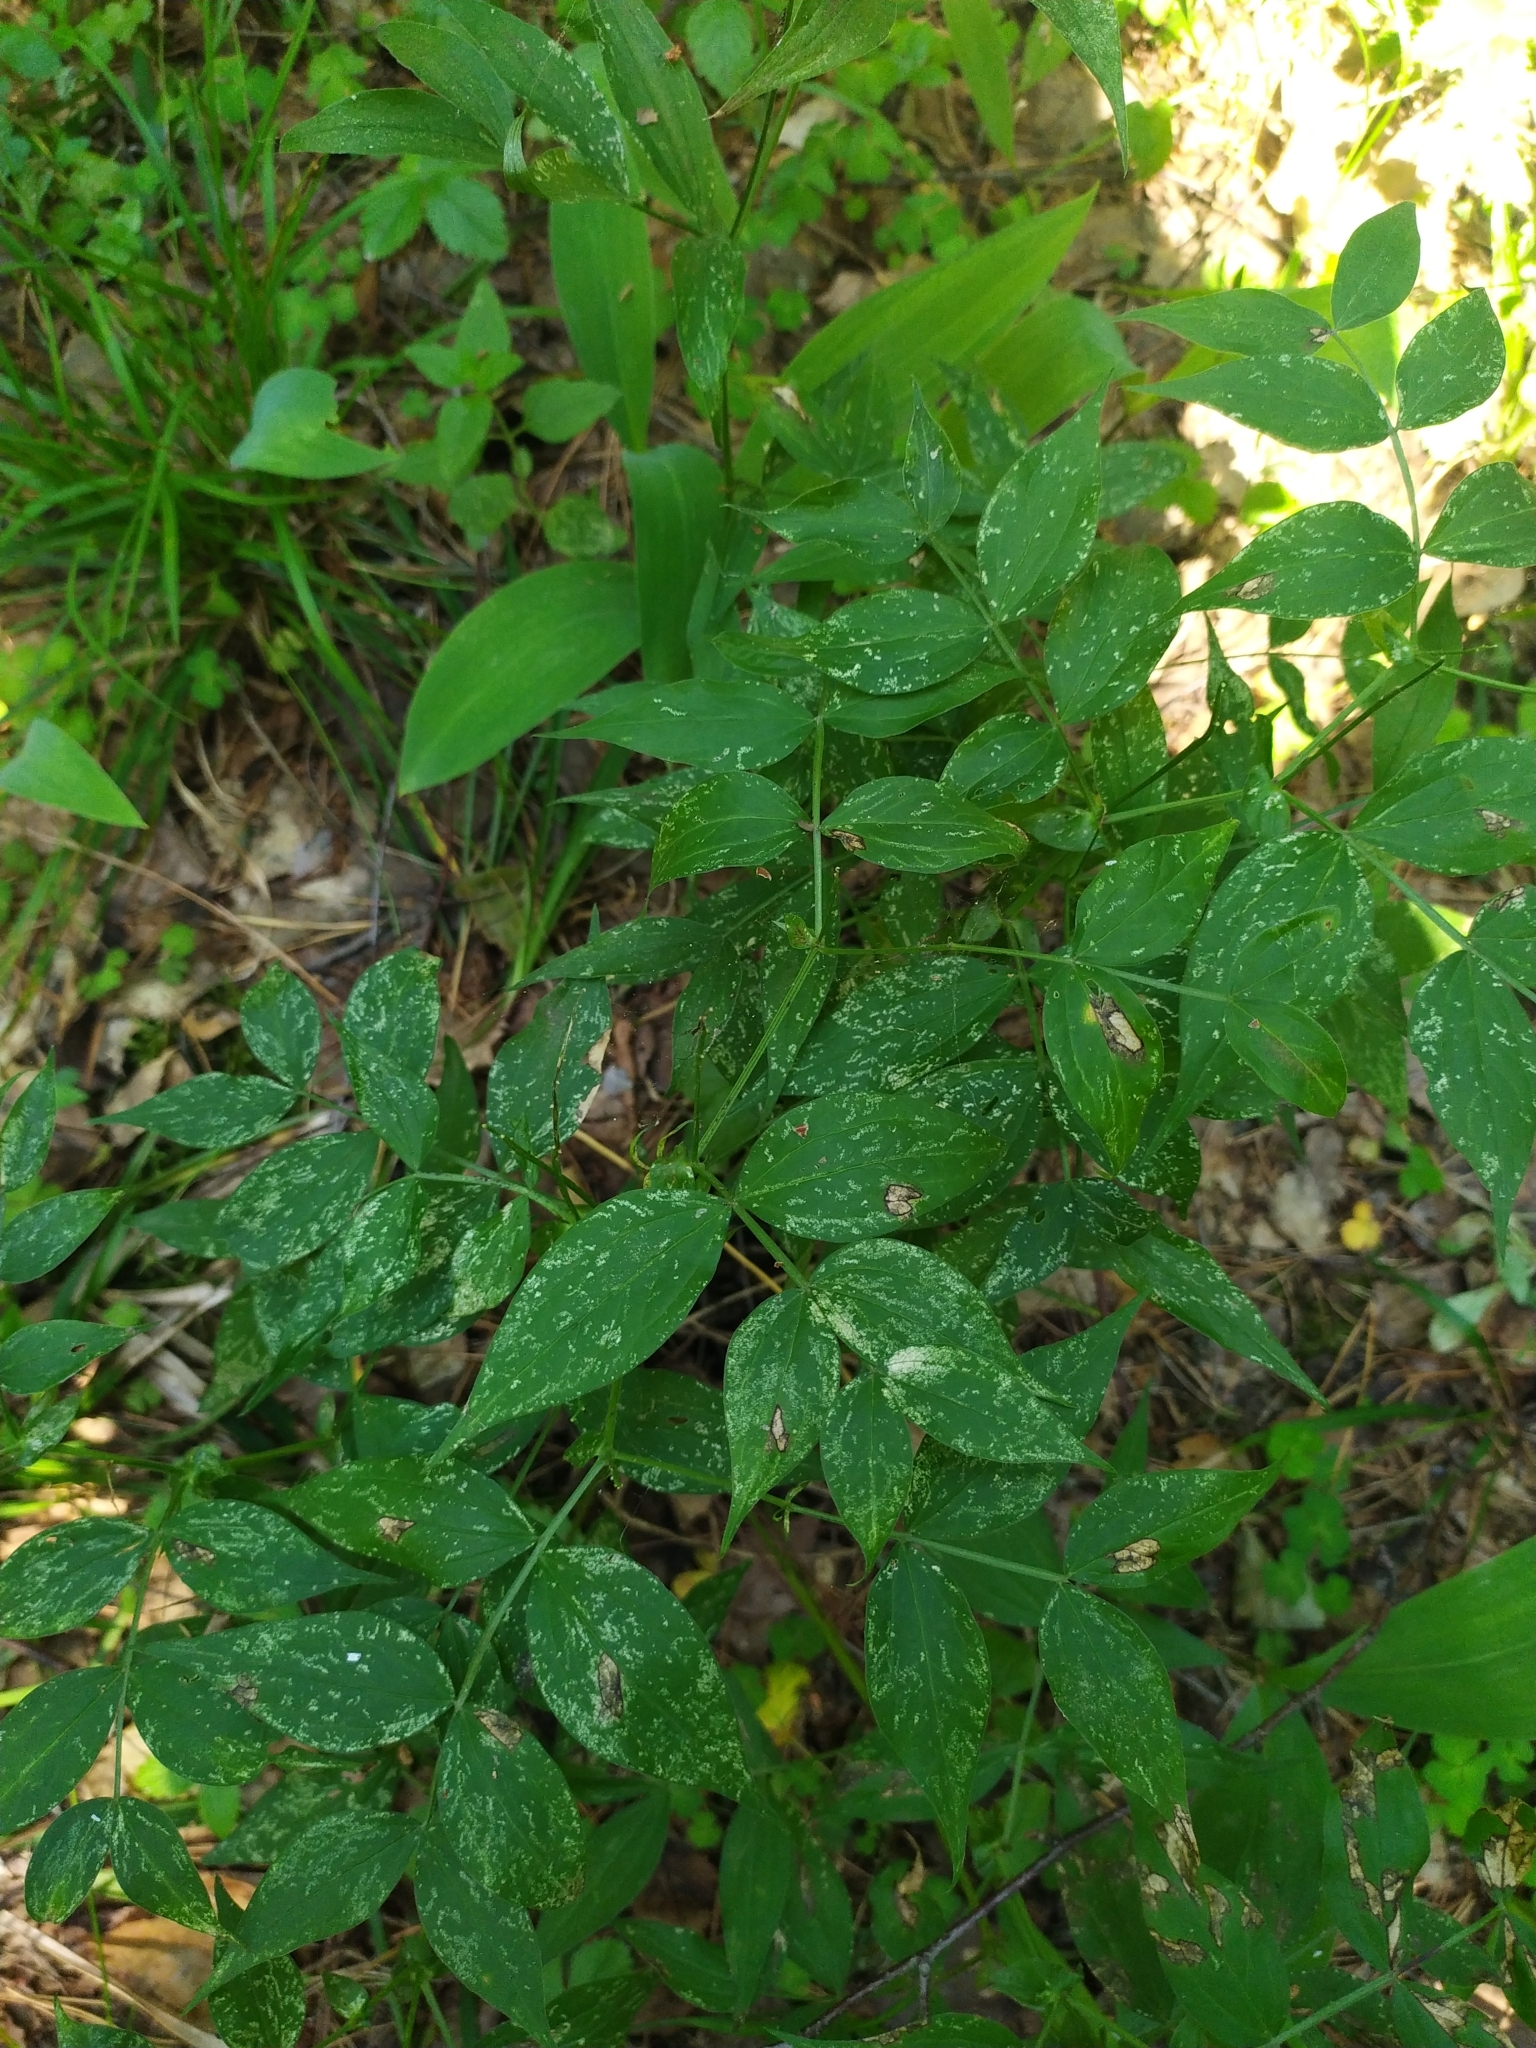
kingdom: Plantae
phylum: Tracheophyta
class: Magnoliopsida
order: Fabales
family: Fabaceae
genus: Lathyrus
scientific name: Lathyrus vernus
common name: Spring pea
